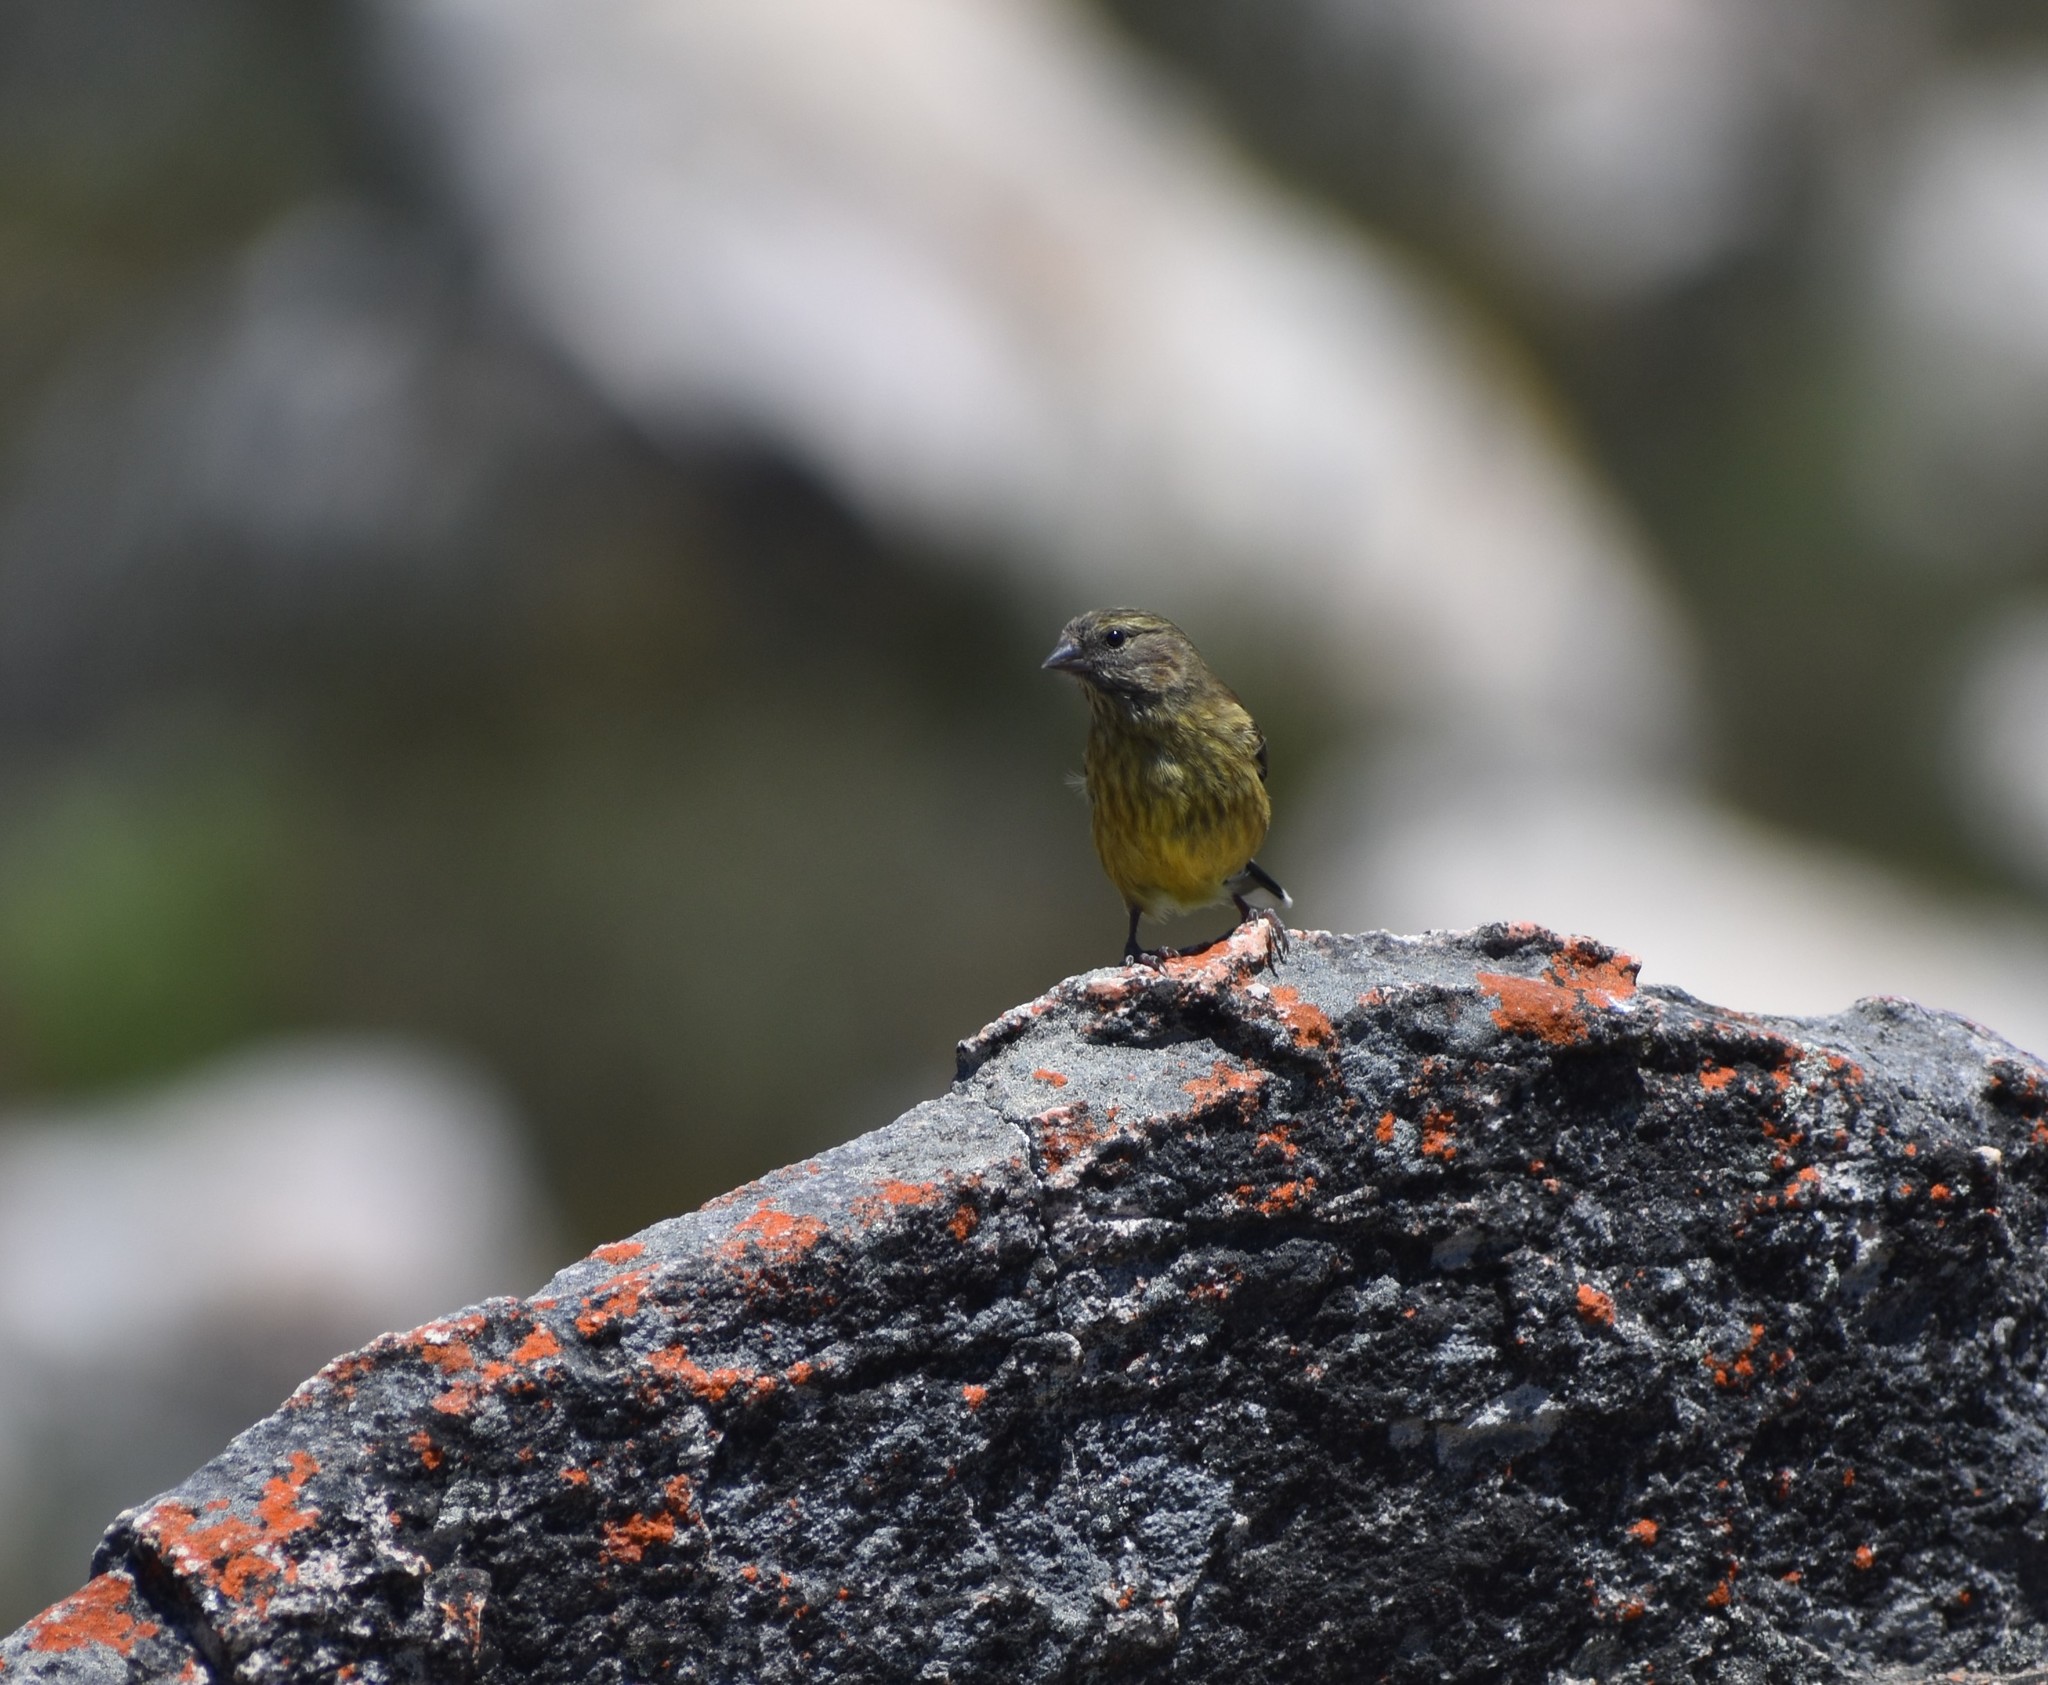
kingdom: Animalia
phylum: Chordata
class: Aves
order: Passeriformes
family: Fringillidae
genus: Crithagra
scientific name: Crithagra totta
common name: Cape siskin
